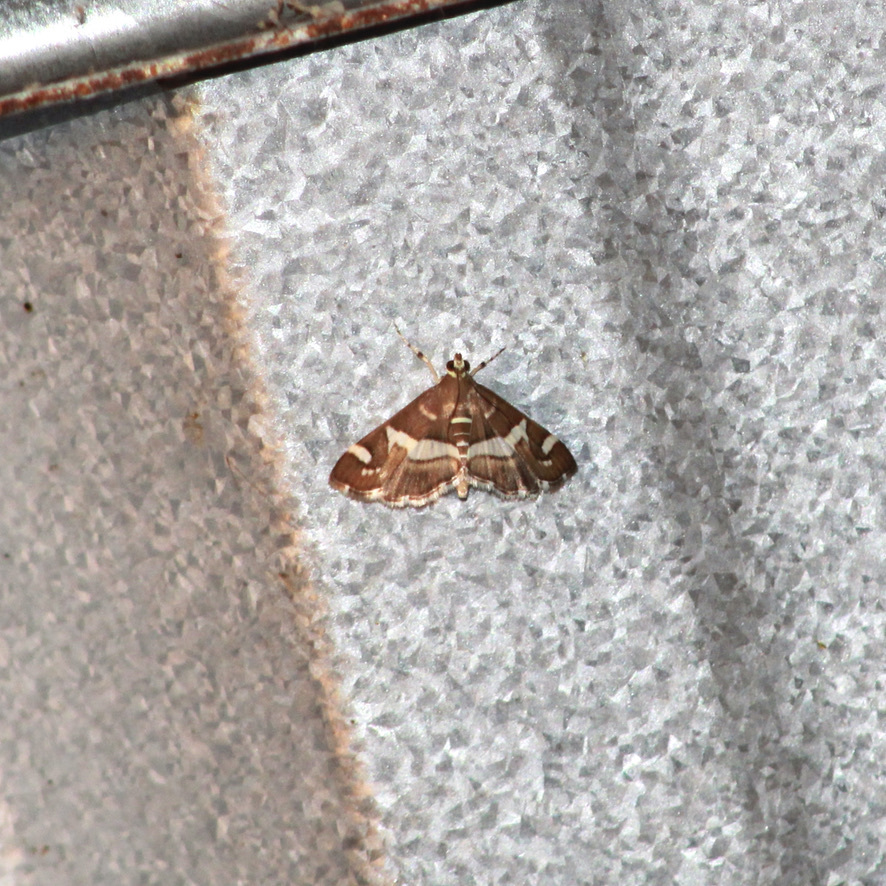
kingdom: Animalia
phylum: Arthropoda
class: Insecta
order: Lepidoptera
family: Crambidae
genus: Spoladea
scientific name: Spoladea recurvalis
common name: Beet webworm moth
